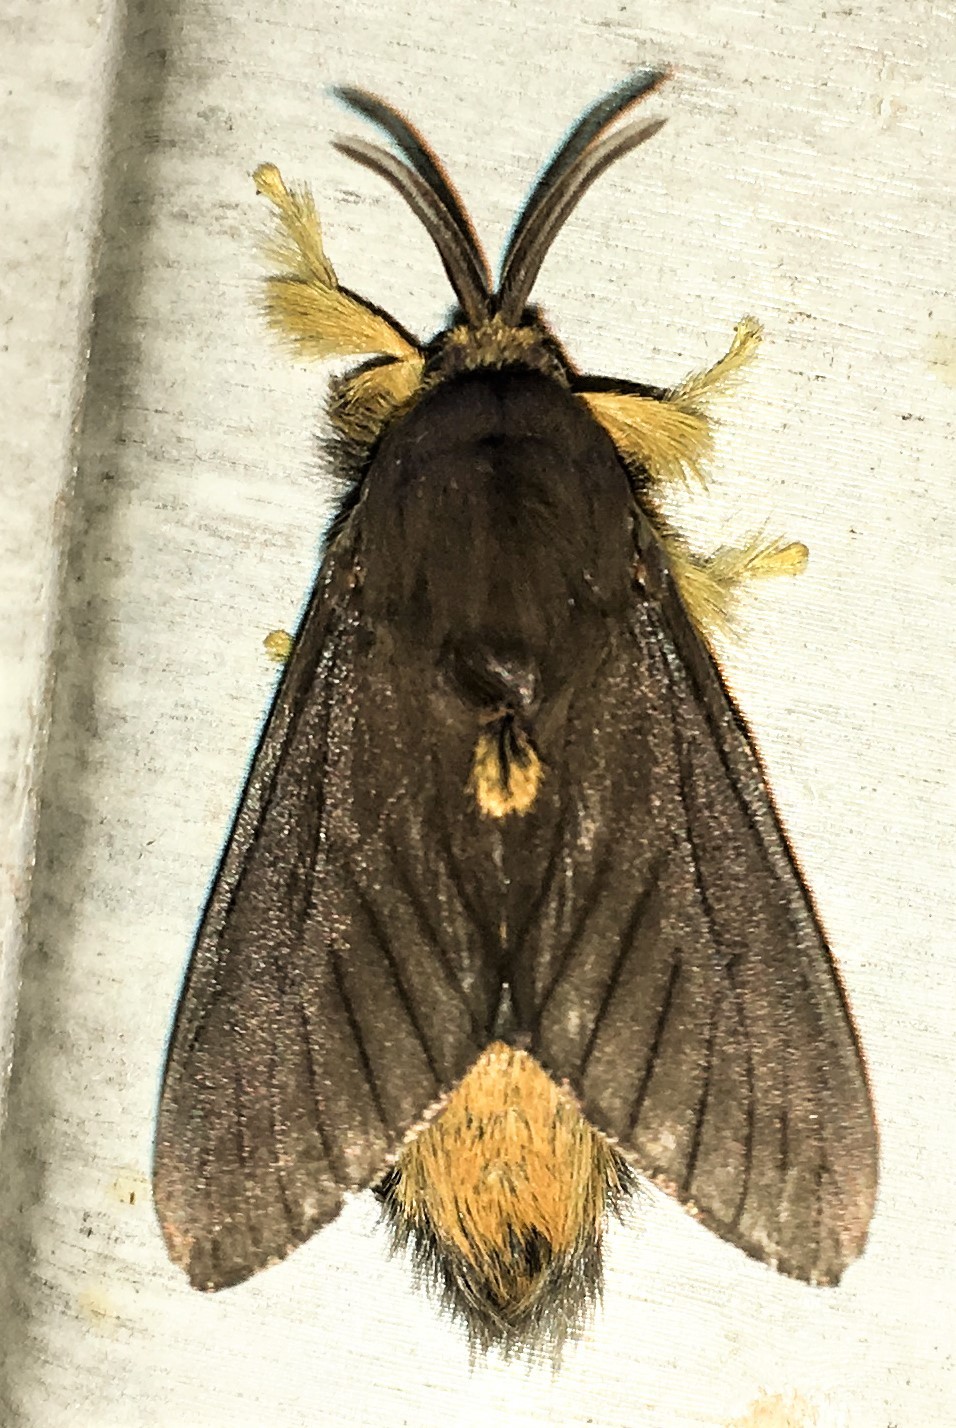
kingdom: Animalia
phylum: Arthropoda
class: Insecta
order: Lepidoptera
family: Megalopygidae
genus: Thoscora
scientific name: Thoscora omayena
